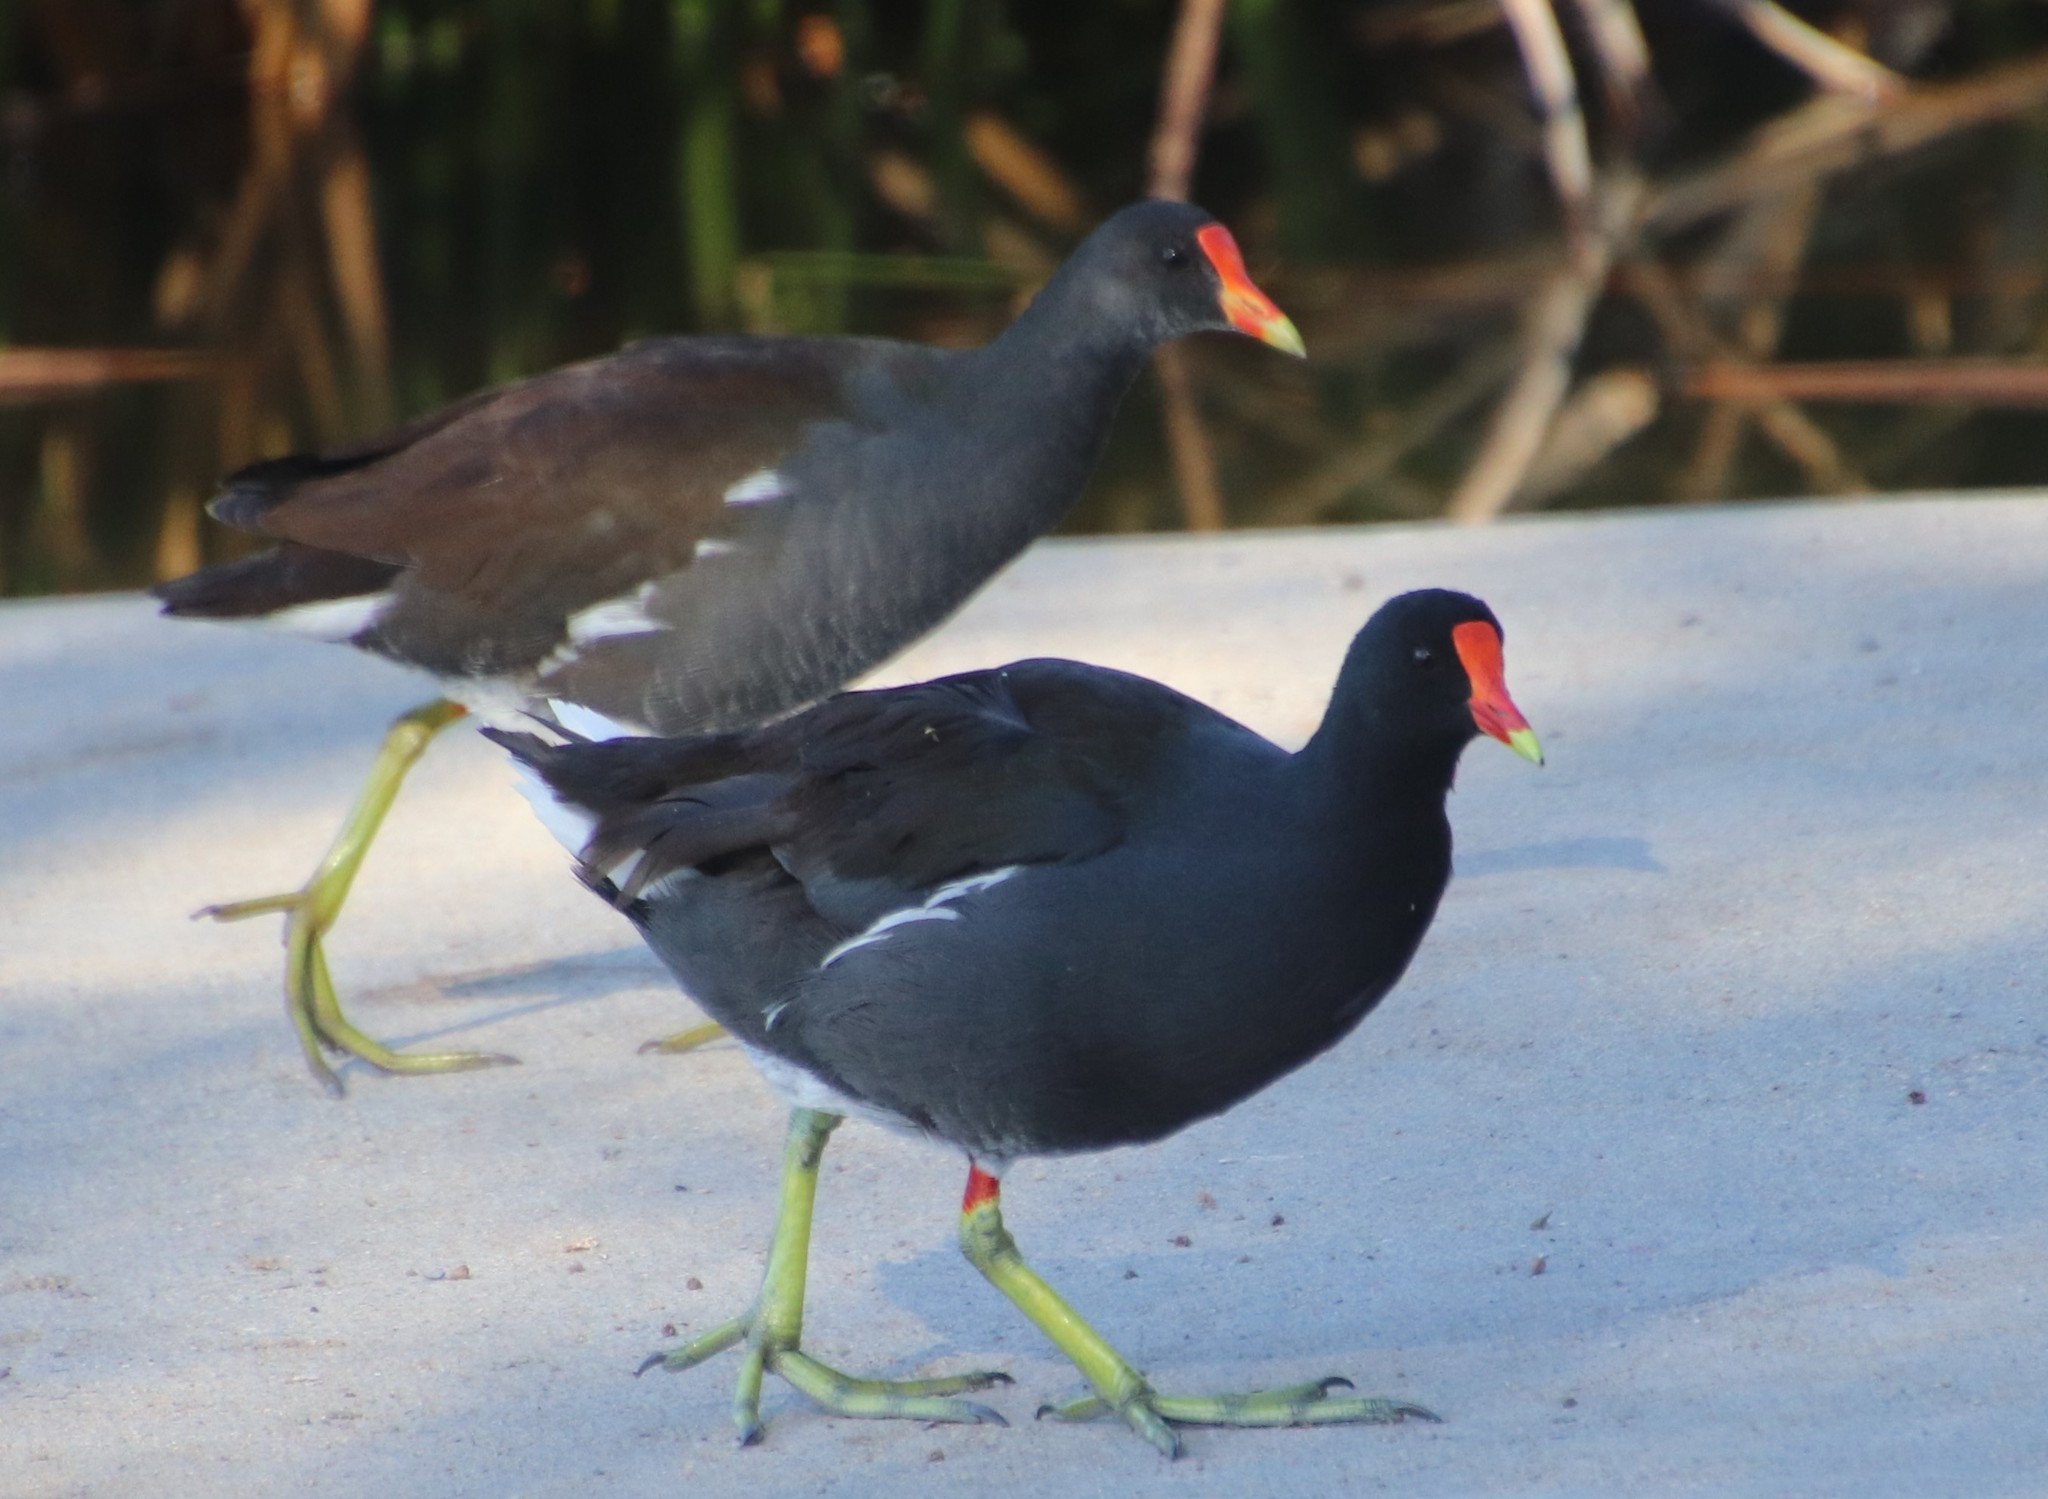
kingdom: Animalia
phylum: Chordata
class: Aves
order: Gruiformes
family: Rallidae
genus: Gallinula
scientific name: Gallinula chloropus
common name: Common moorhen
